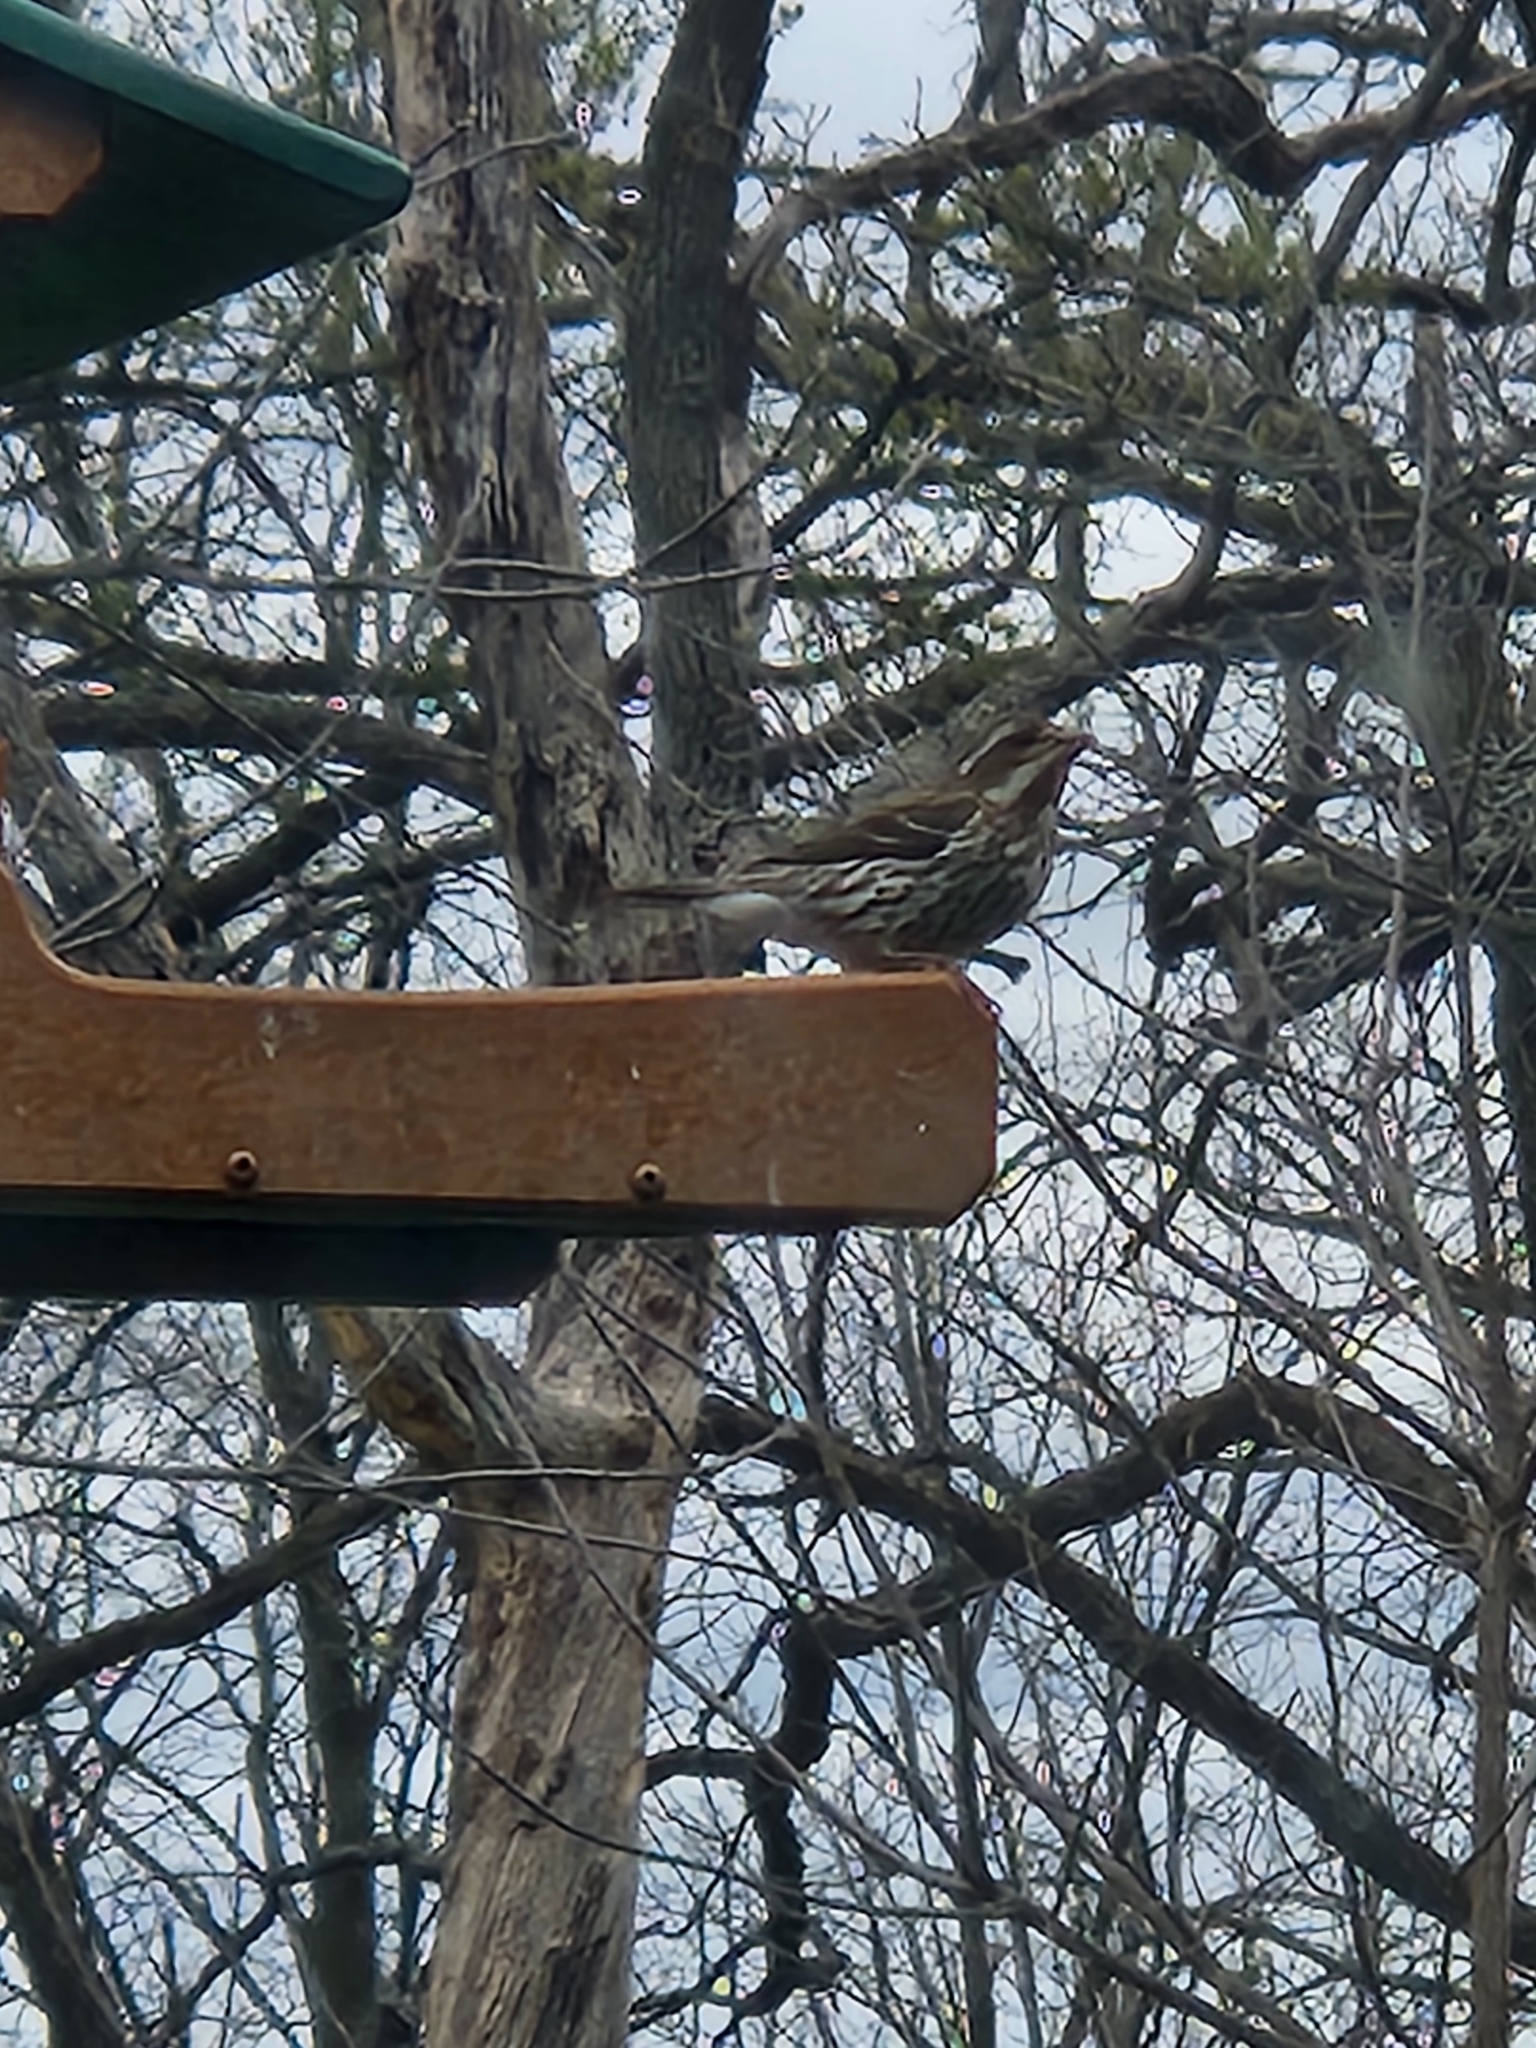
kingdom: Animalia
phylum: Chordata
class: Aves
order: Passeriformes
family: Fringillidae
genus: Haemorhous
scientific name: Haemorhous purpureus
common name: Purple finch
